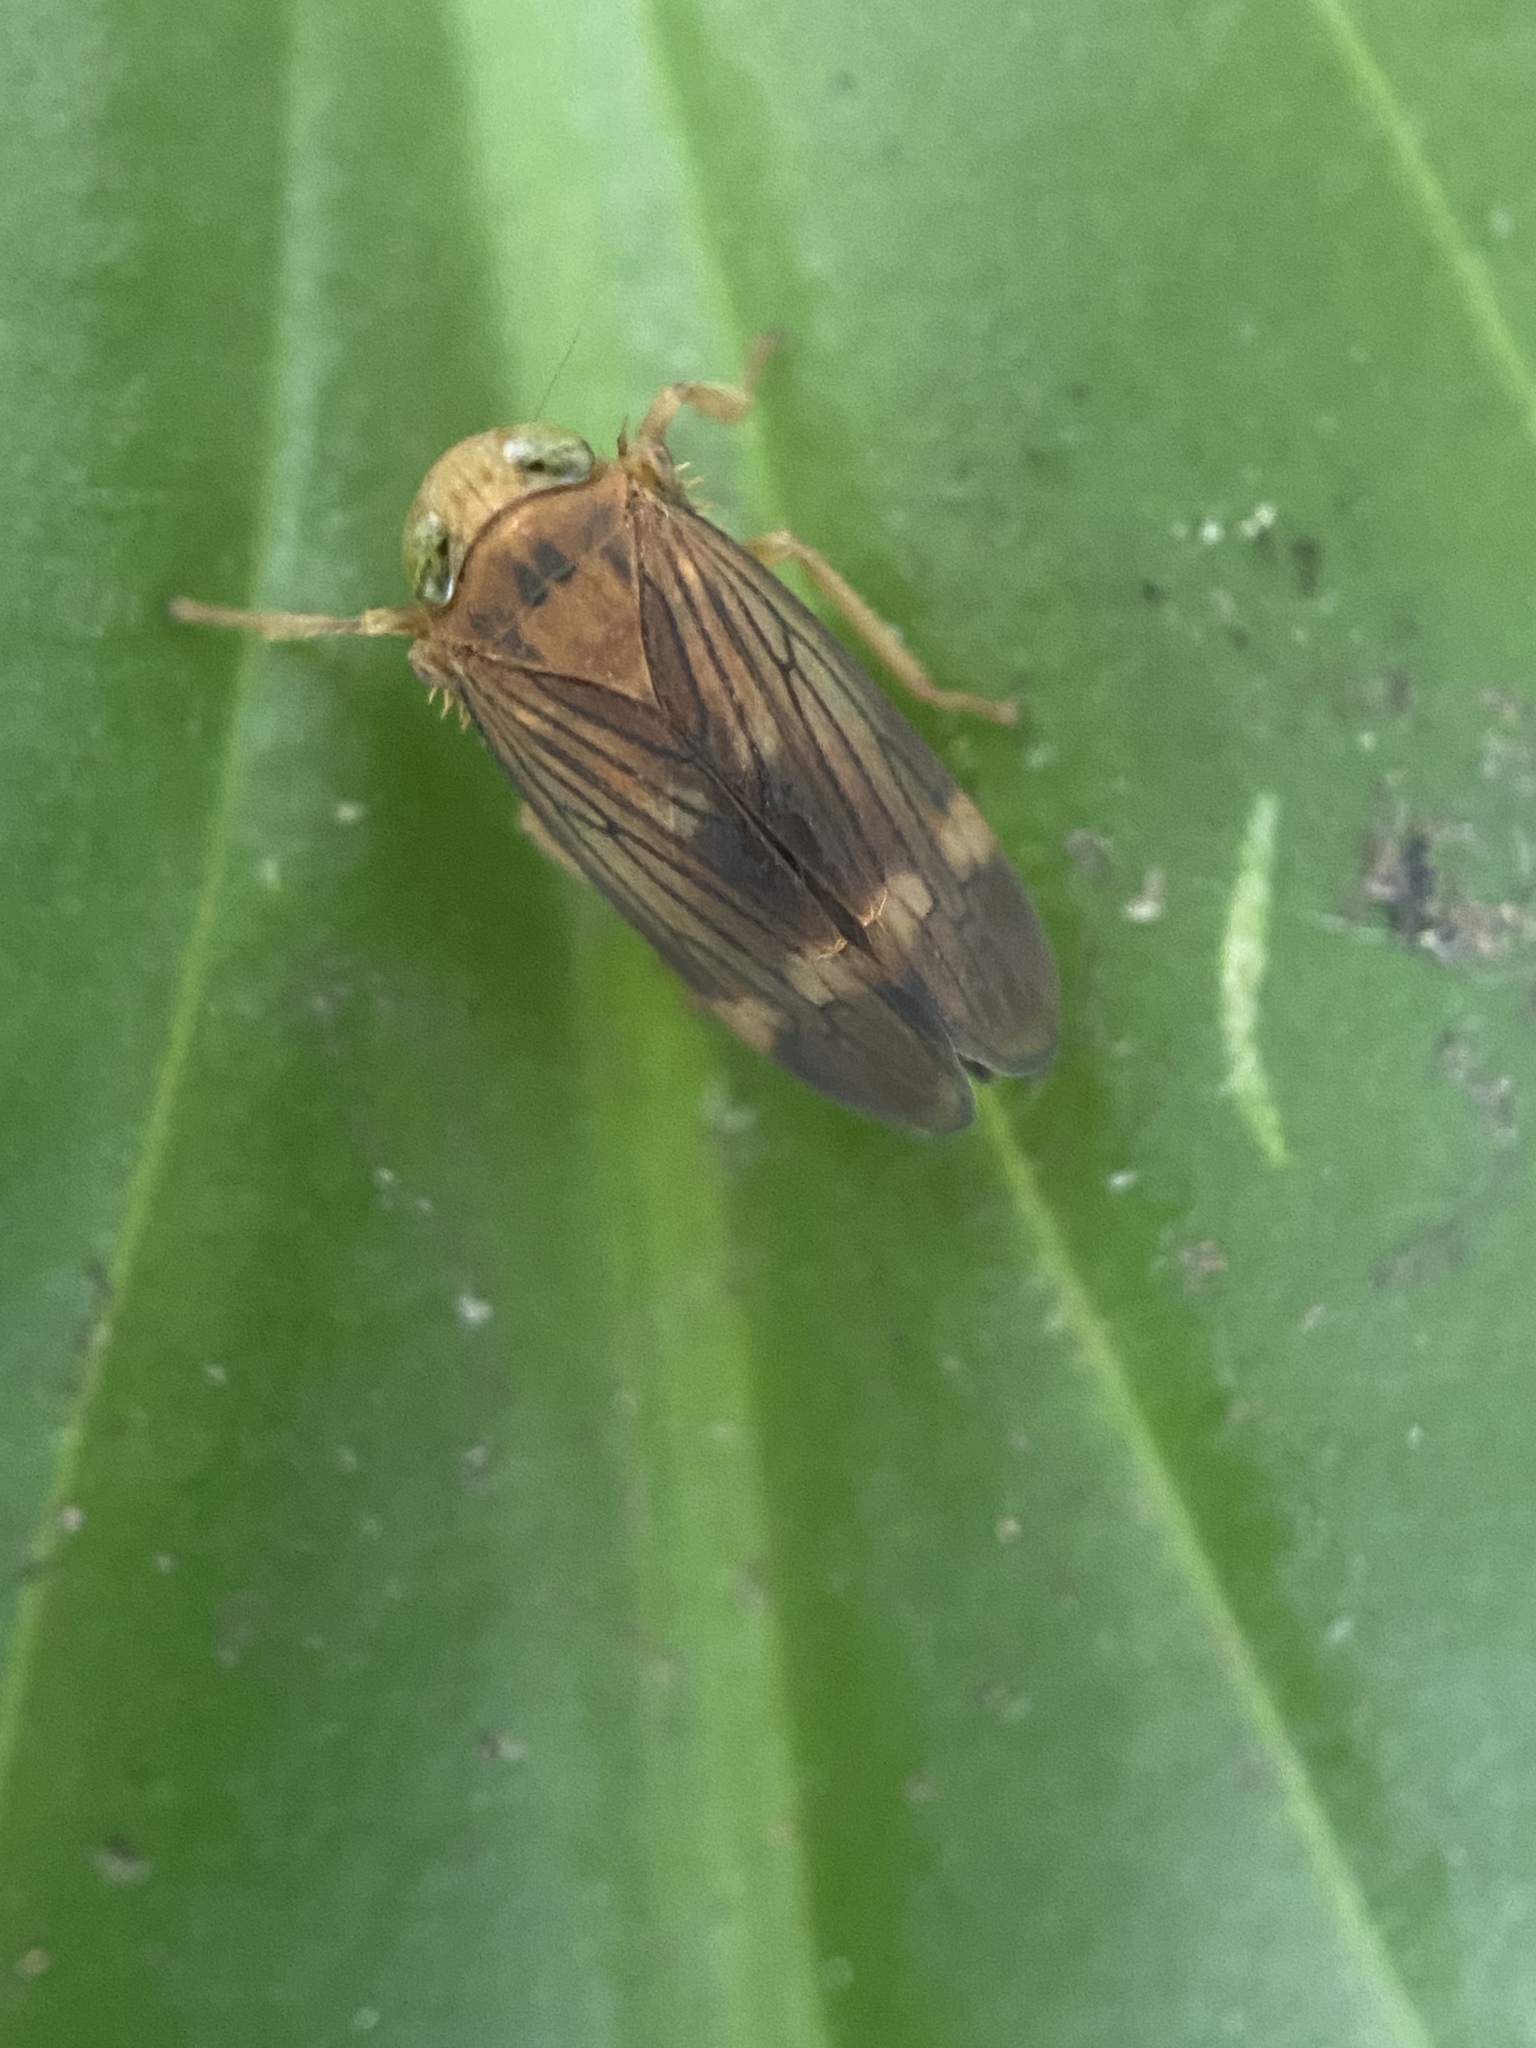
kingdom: Animalia
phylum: Arthropoda
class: Insecta
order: Hemiptera
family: Cicadellidae
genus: Jikradia
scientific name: Jikradia olitoria
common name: Coppery leafhopper
